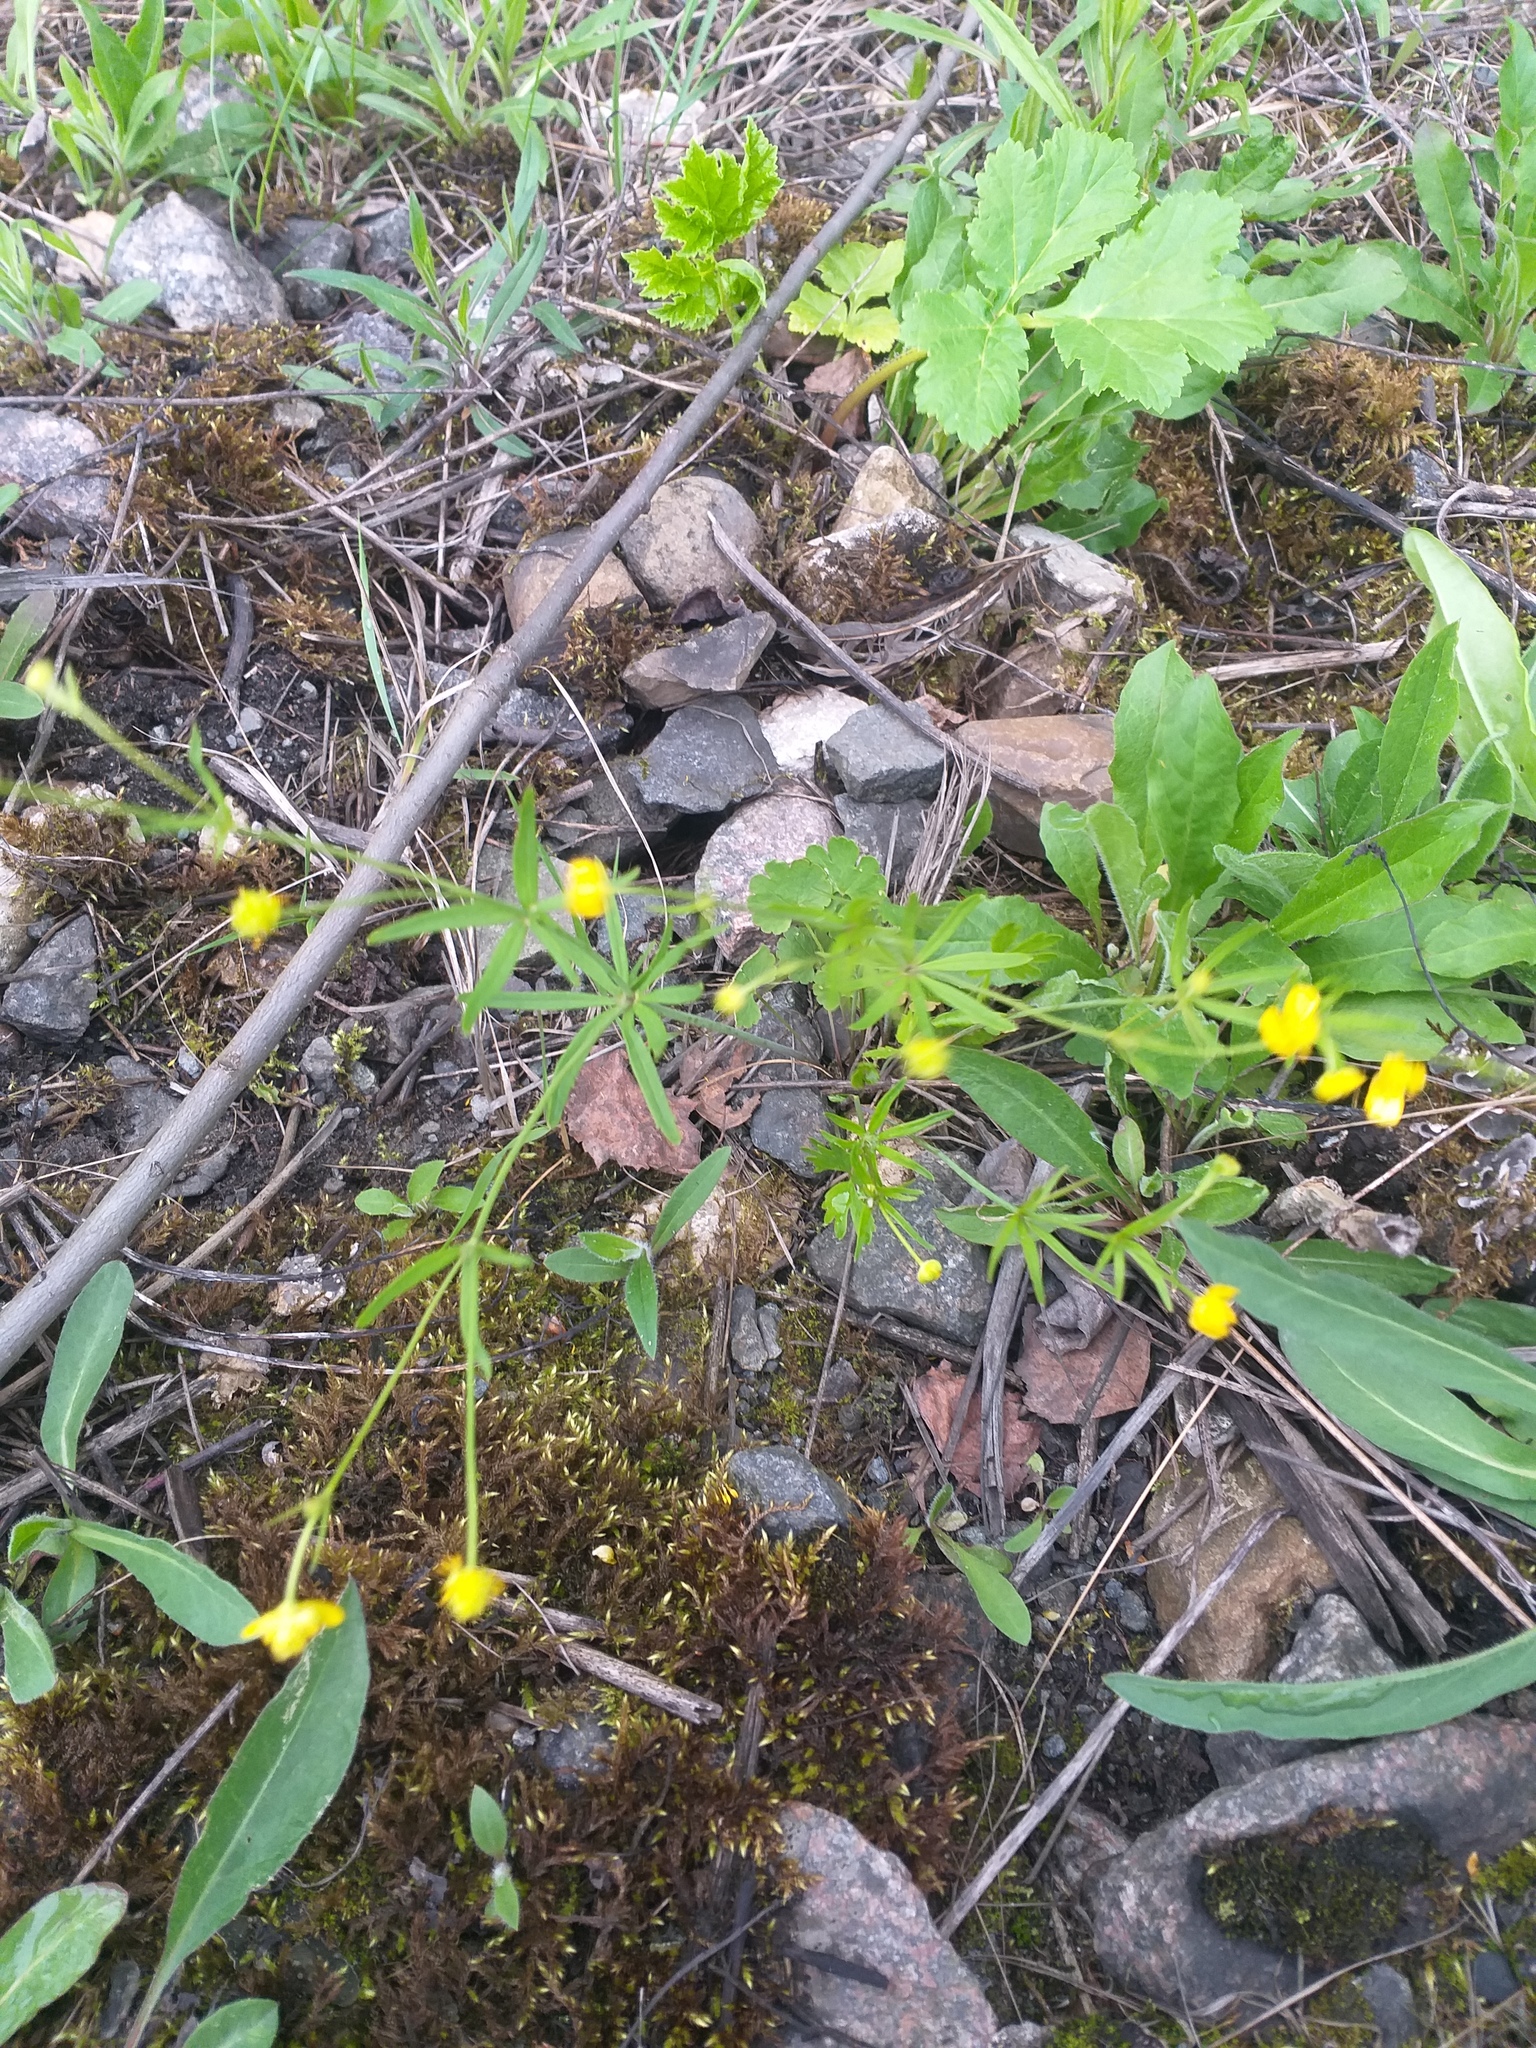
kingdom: Plantae
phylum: Tracheophyta
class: Magnoliopsida
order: Ranunculales
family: Ranunculaceae
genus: Ranunculus
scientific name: Ranunculus auricomus
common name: Goldilocks buttercup
